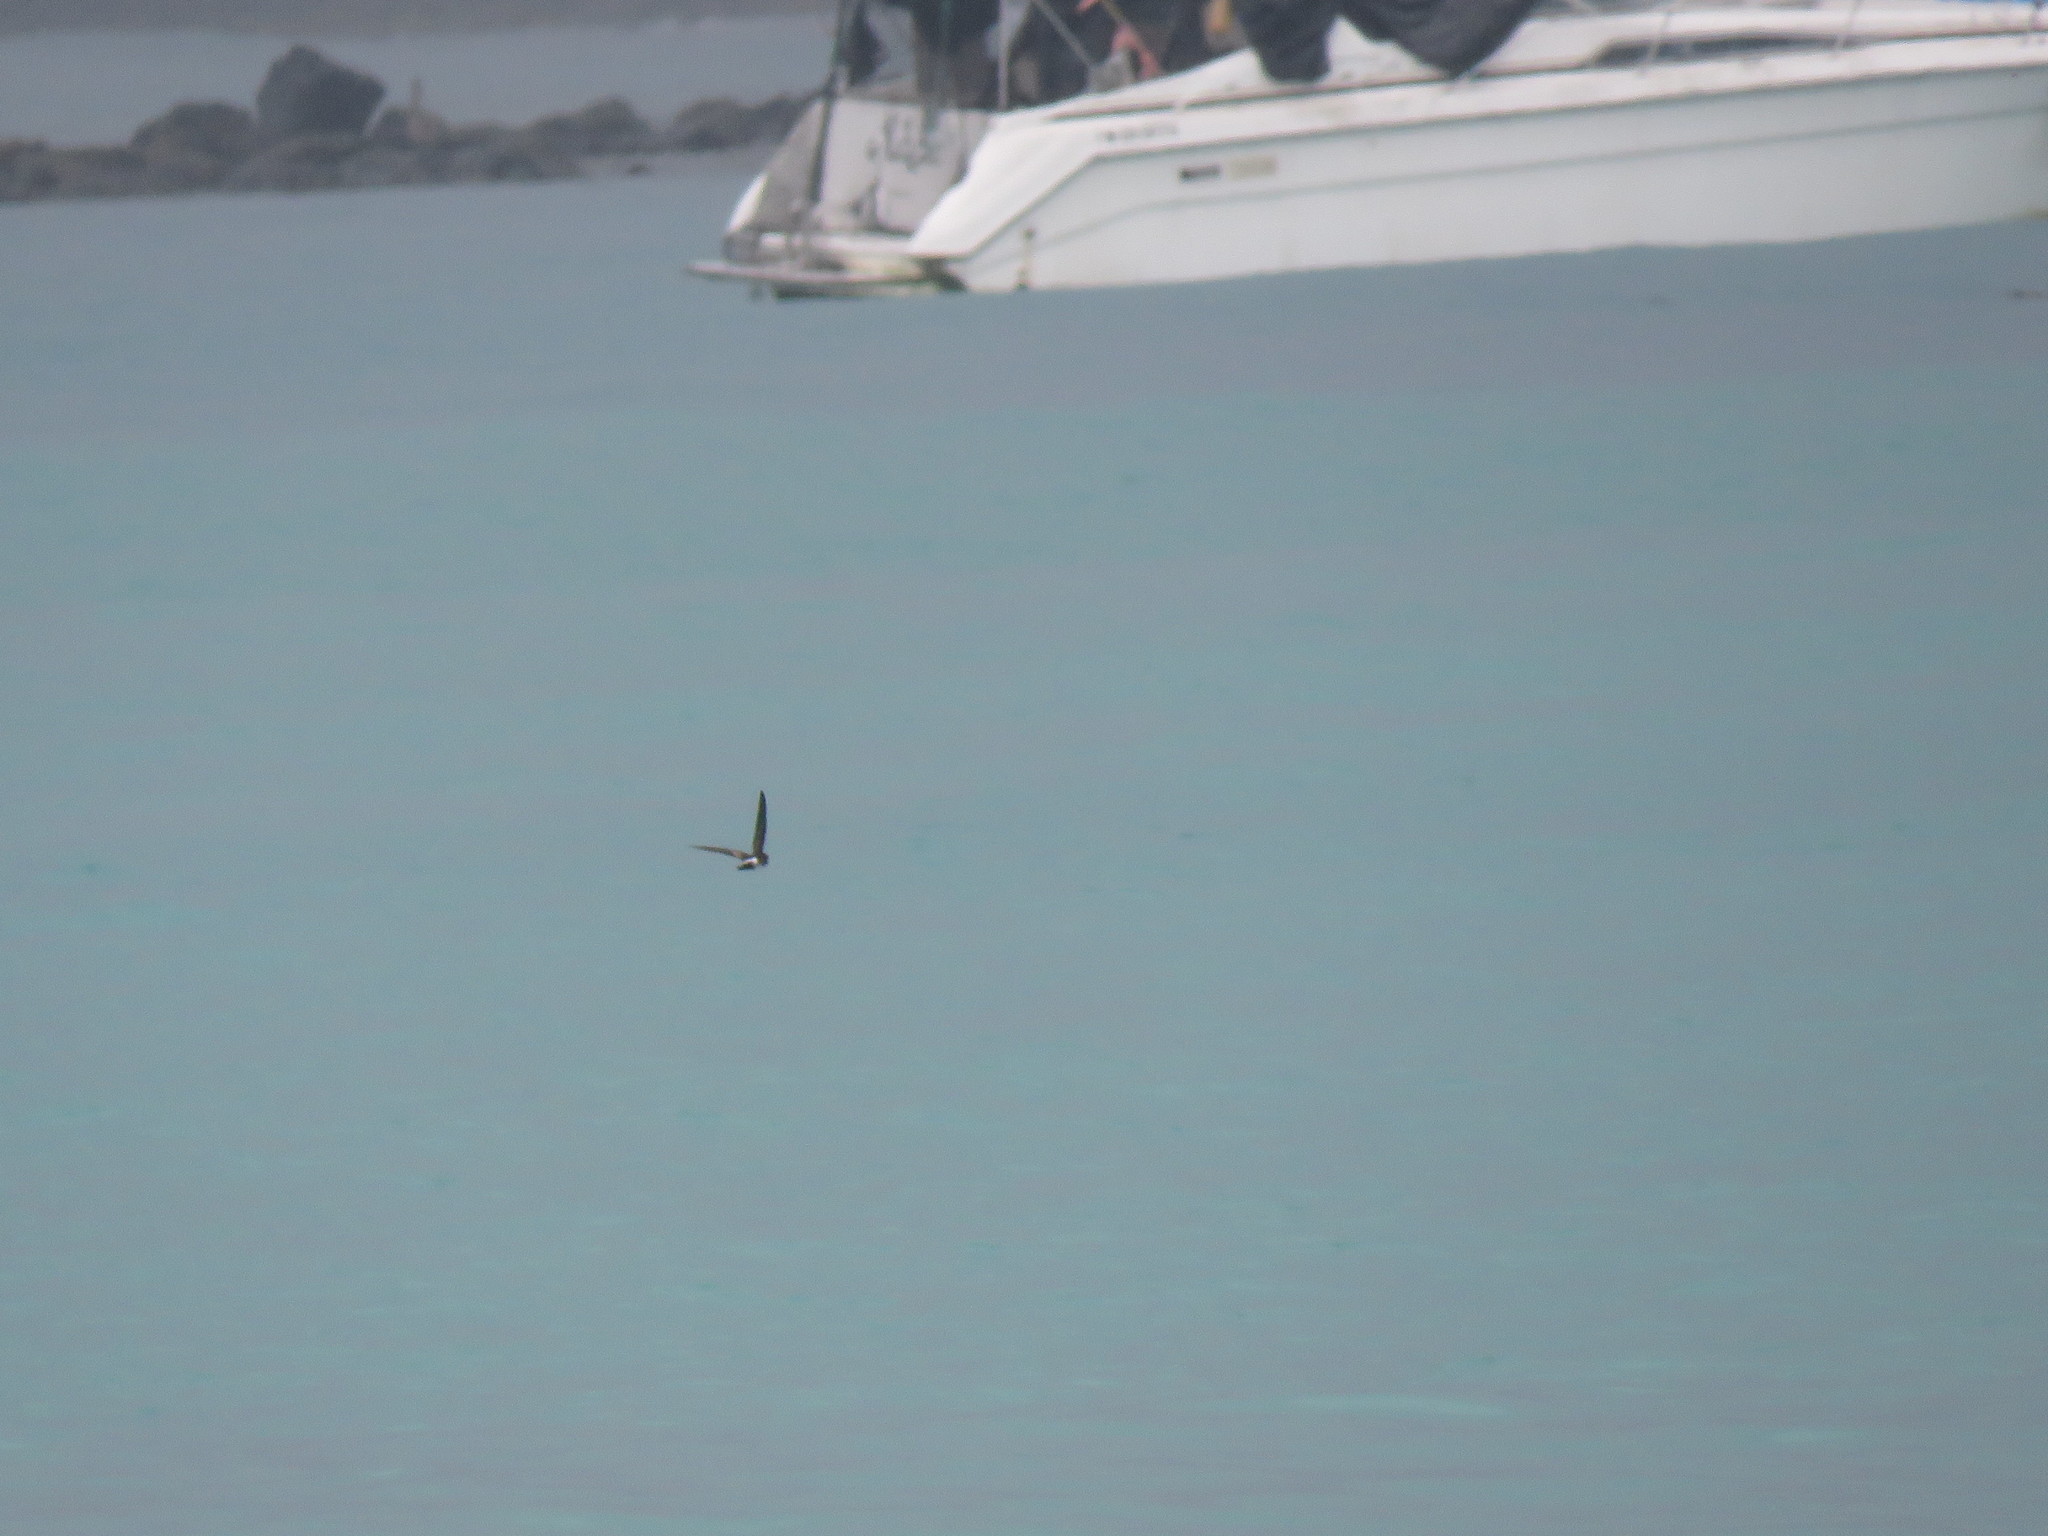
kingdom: Animalia
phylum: Chordata
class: Aves
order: Procellariiformes
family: Hydrobatidae
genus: Oceanites
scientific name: Oceanites gracilis
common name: Elliot's storm-petrel
